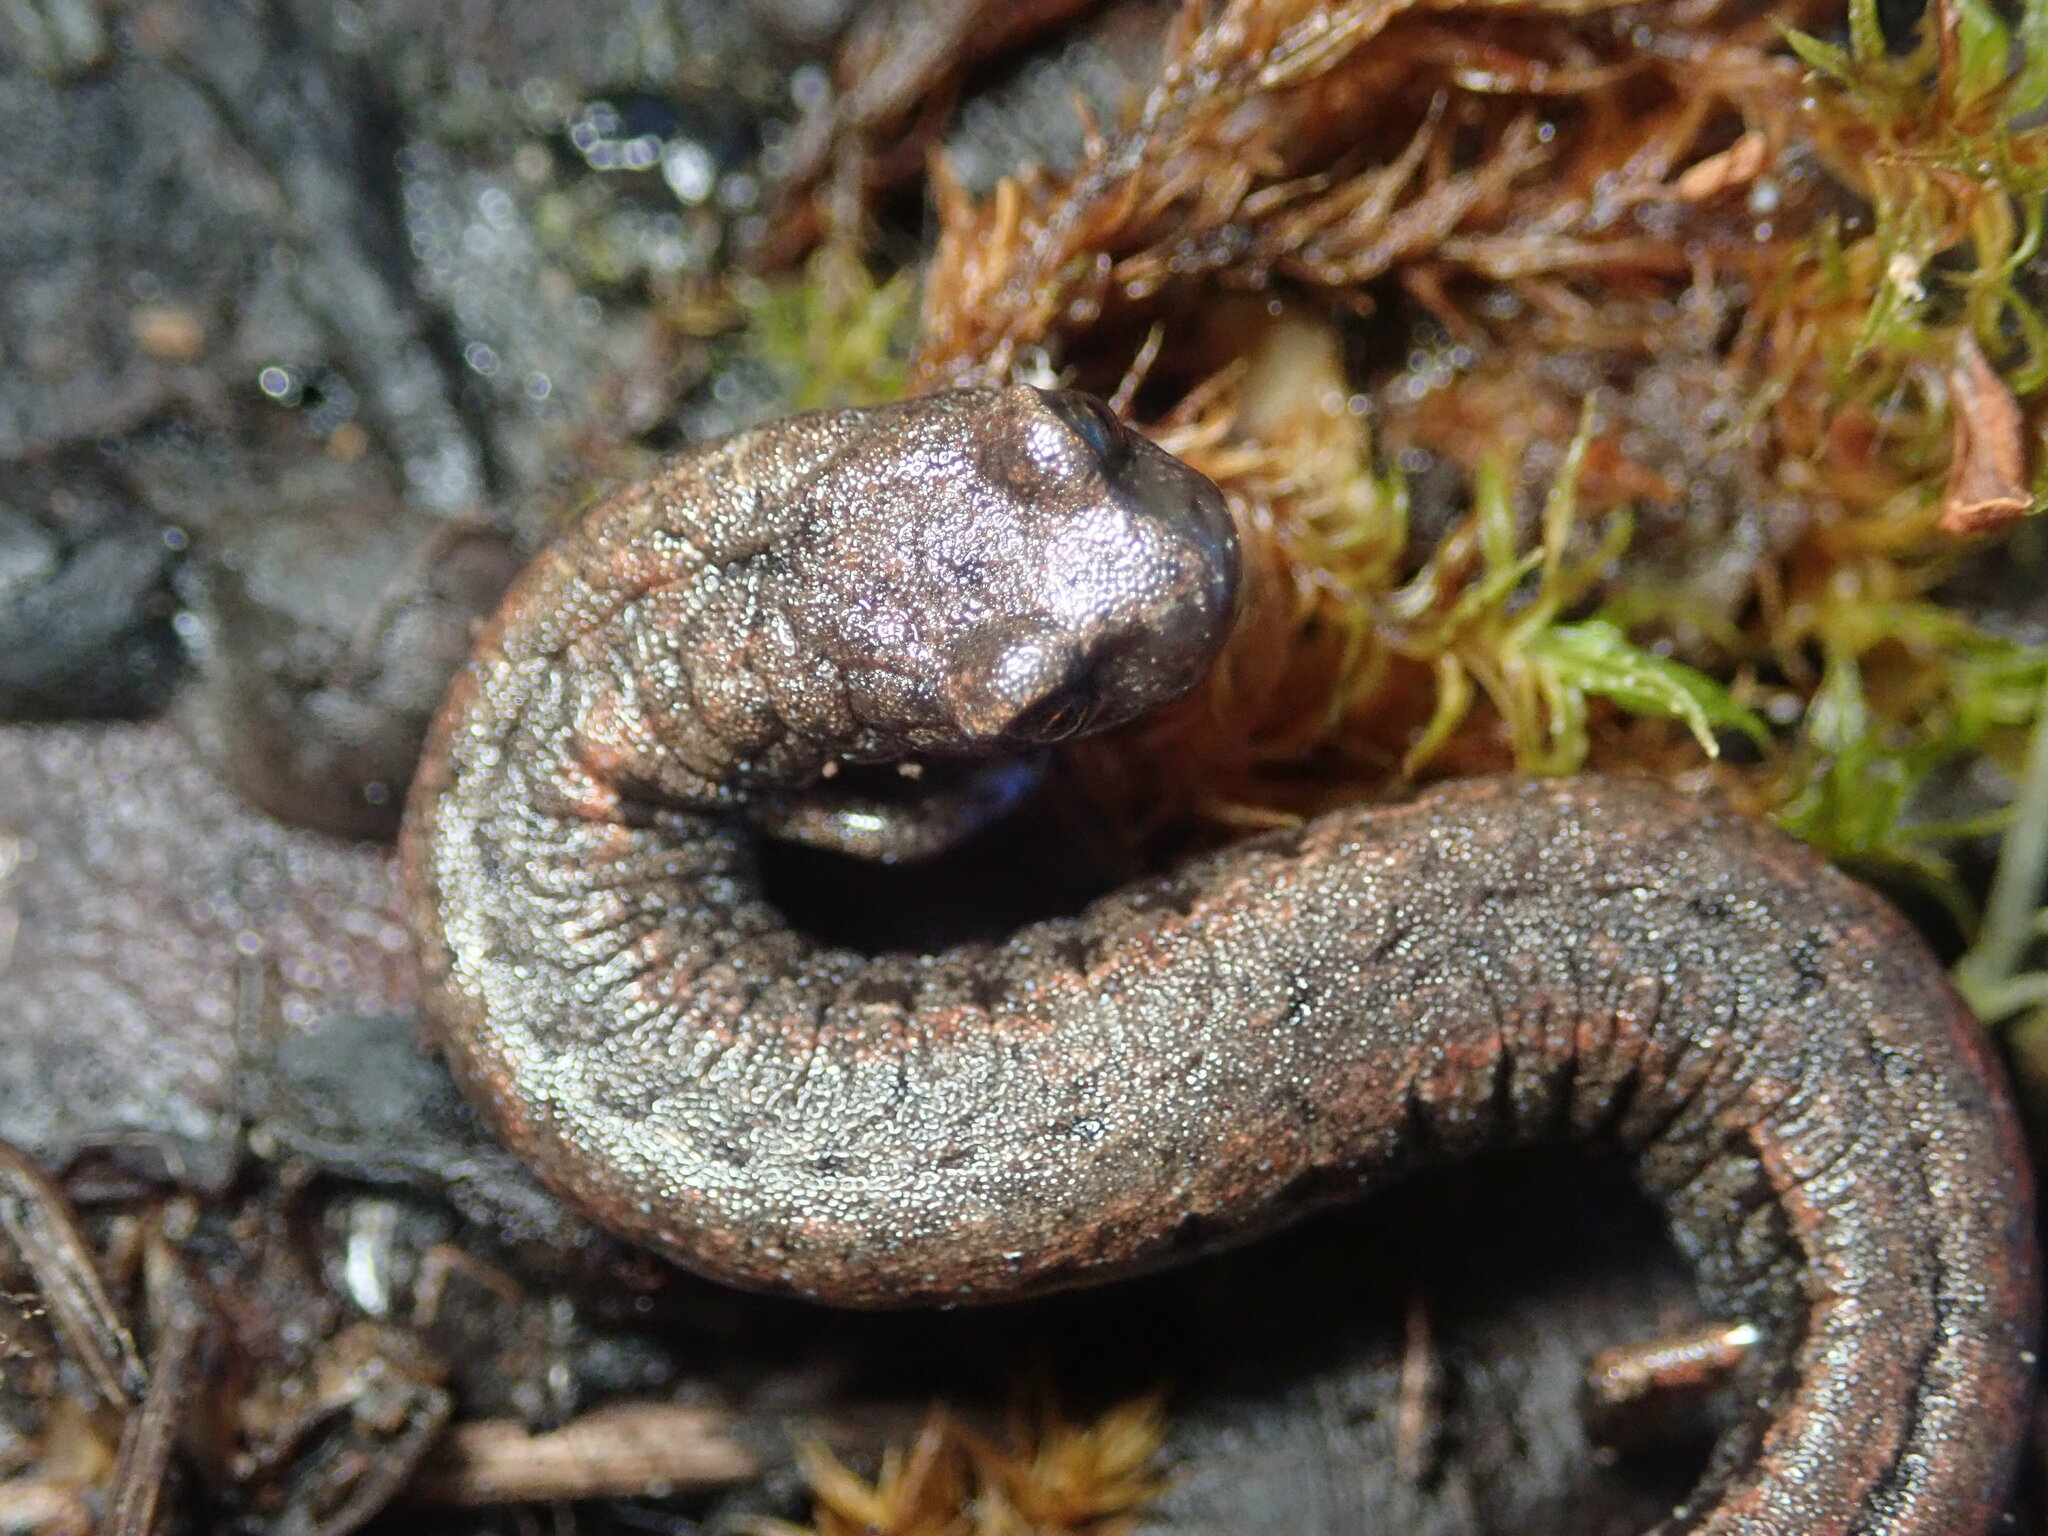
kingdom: Animalia
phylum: Chordata
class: Amphibia
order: Caudata
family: Plethodontidae
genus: Batrachoseps
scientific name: Batrachoseps attenuatus
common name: California slender salamander
